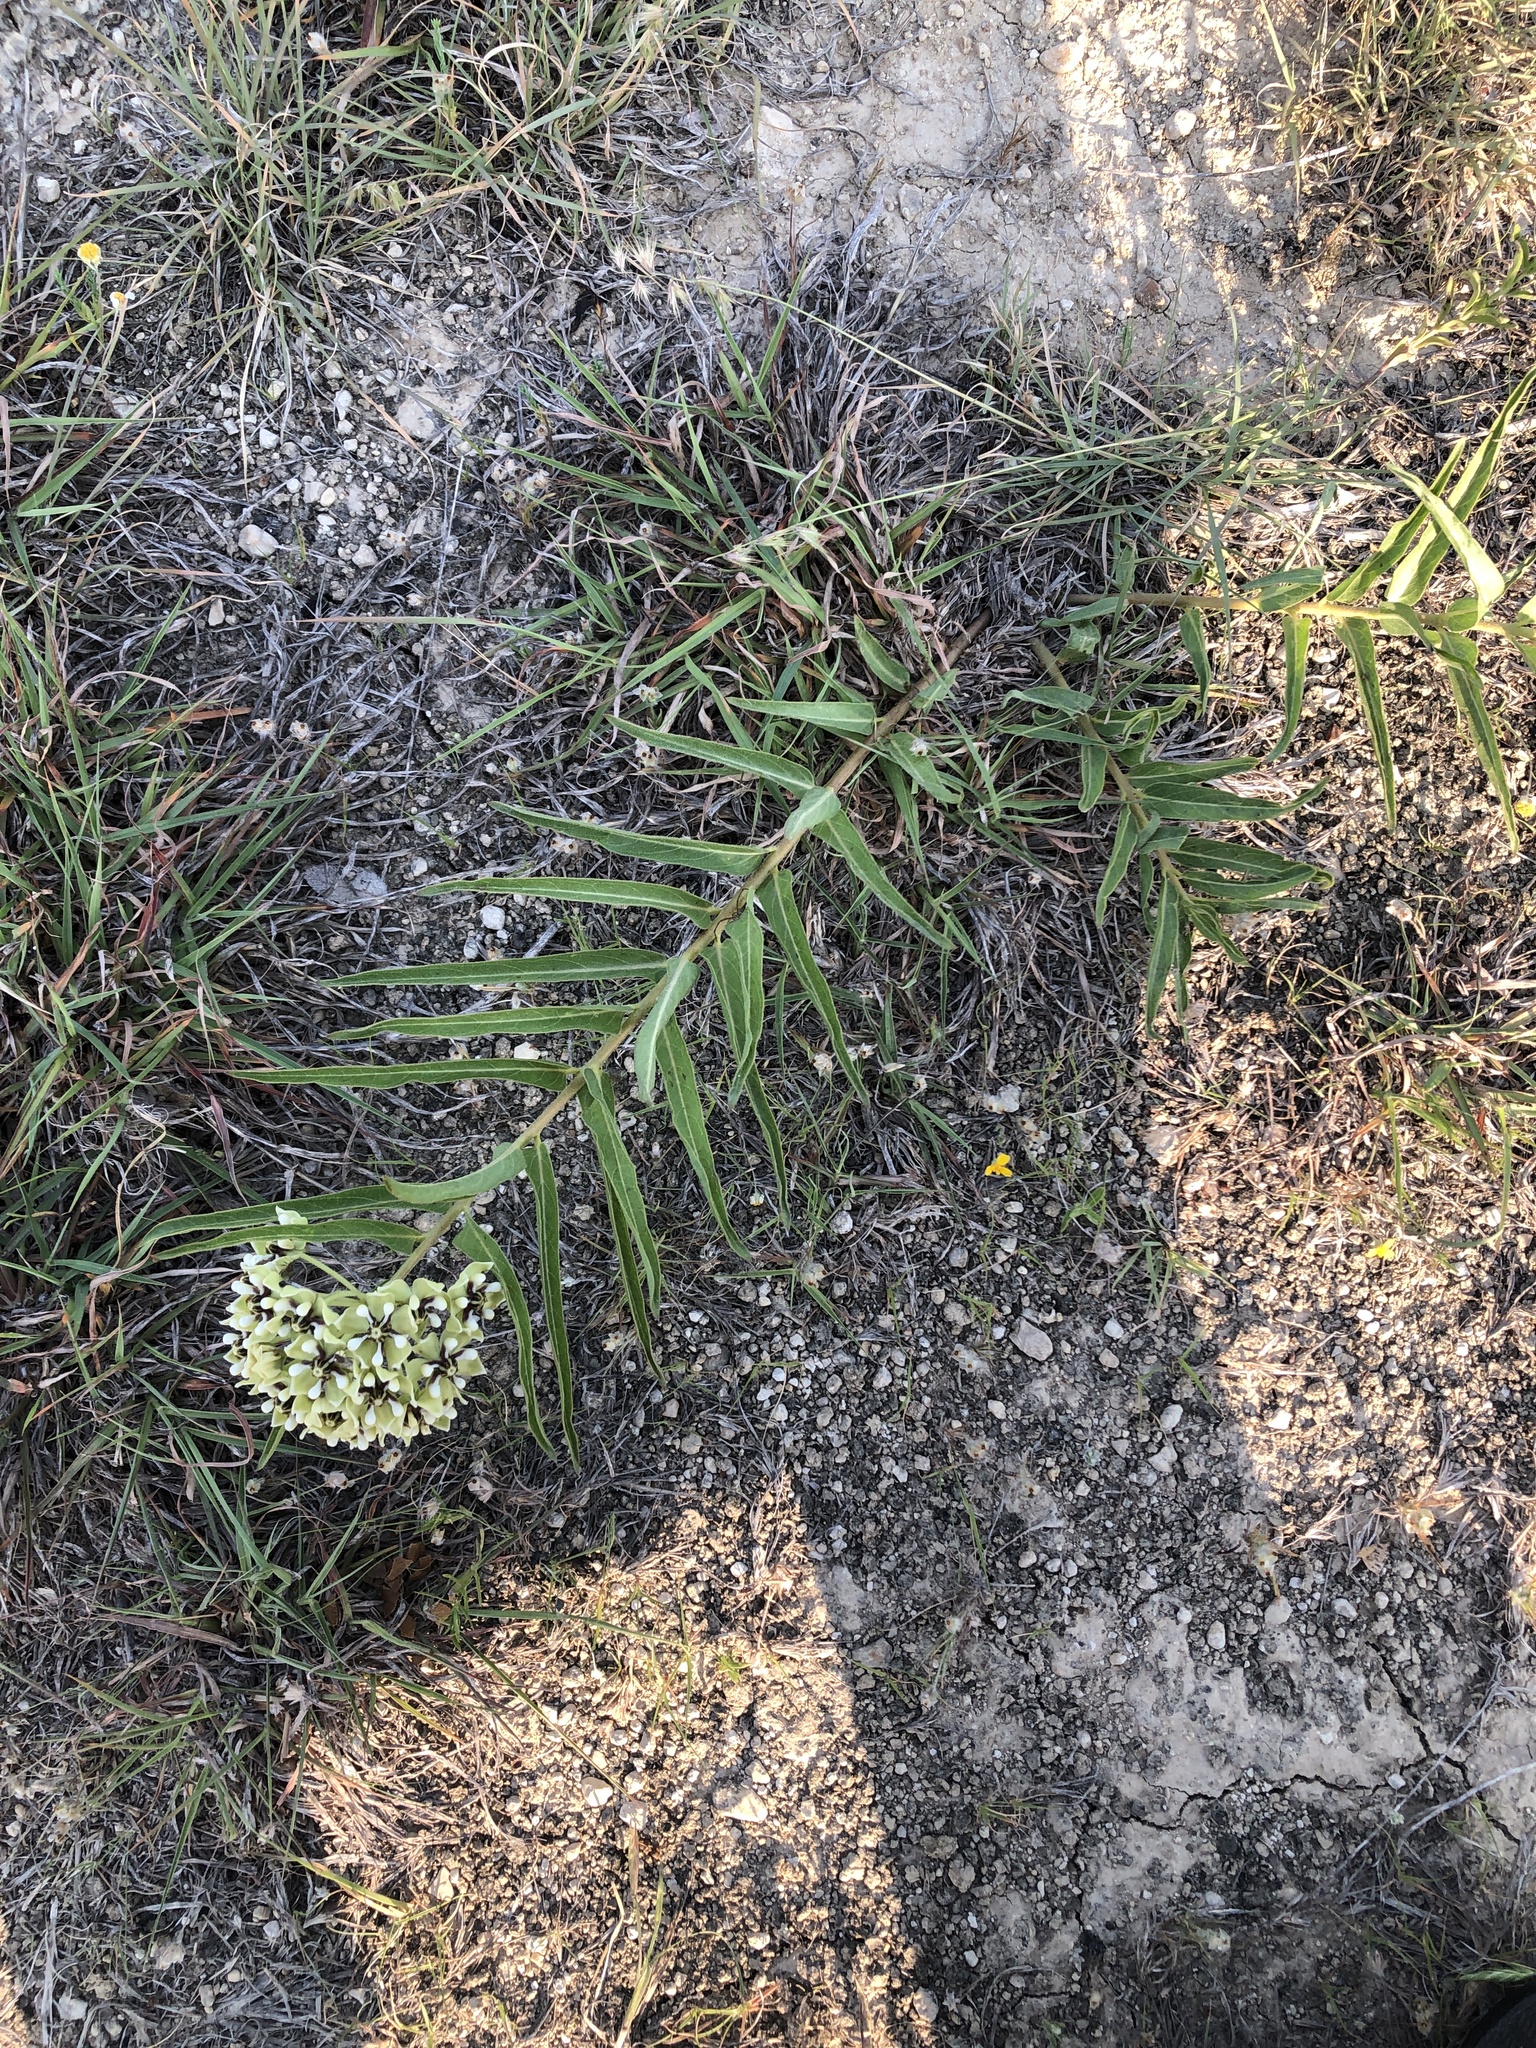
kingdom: Plantae
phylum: Tracheophyta
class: Magnoliopsida
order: Gentianales
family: Apocynaceae
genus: Asclepias
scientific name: Asclepias asperula
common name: Antelope horns
